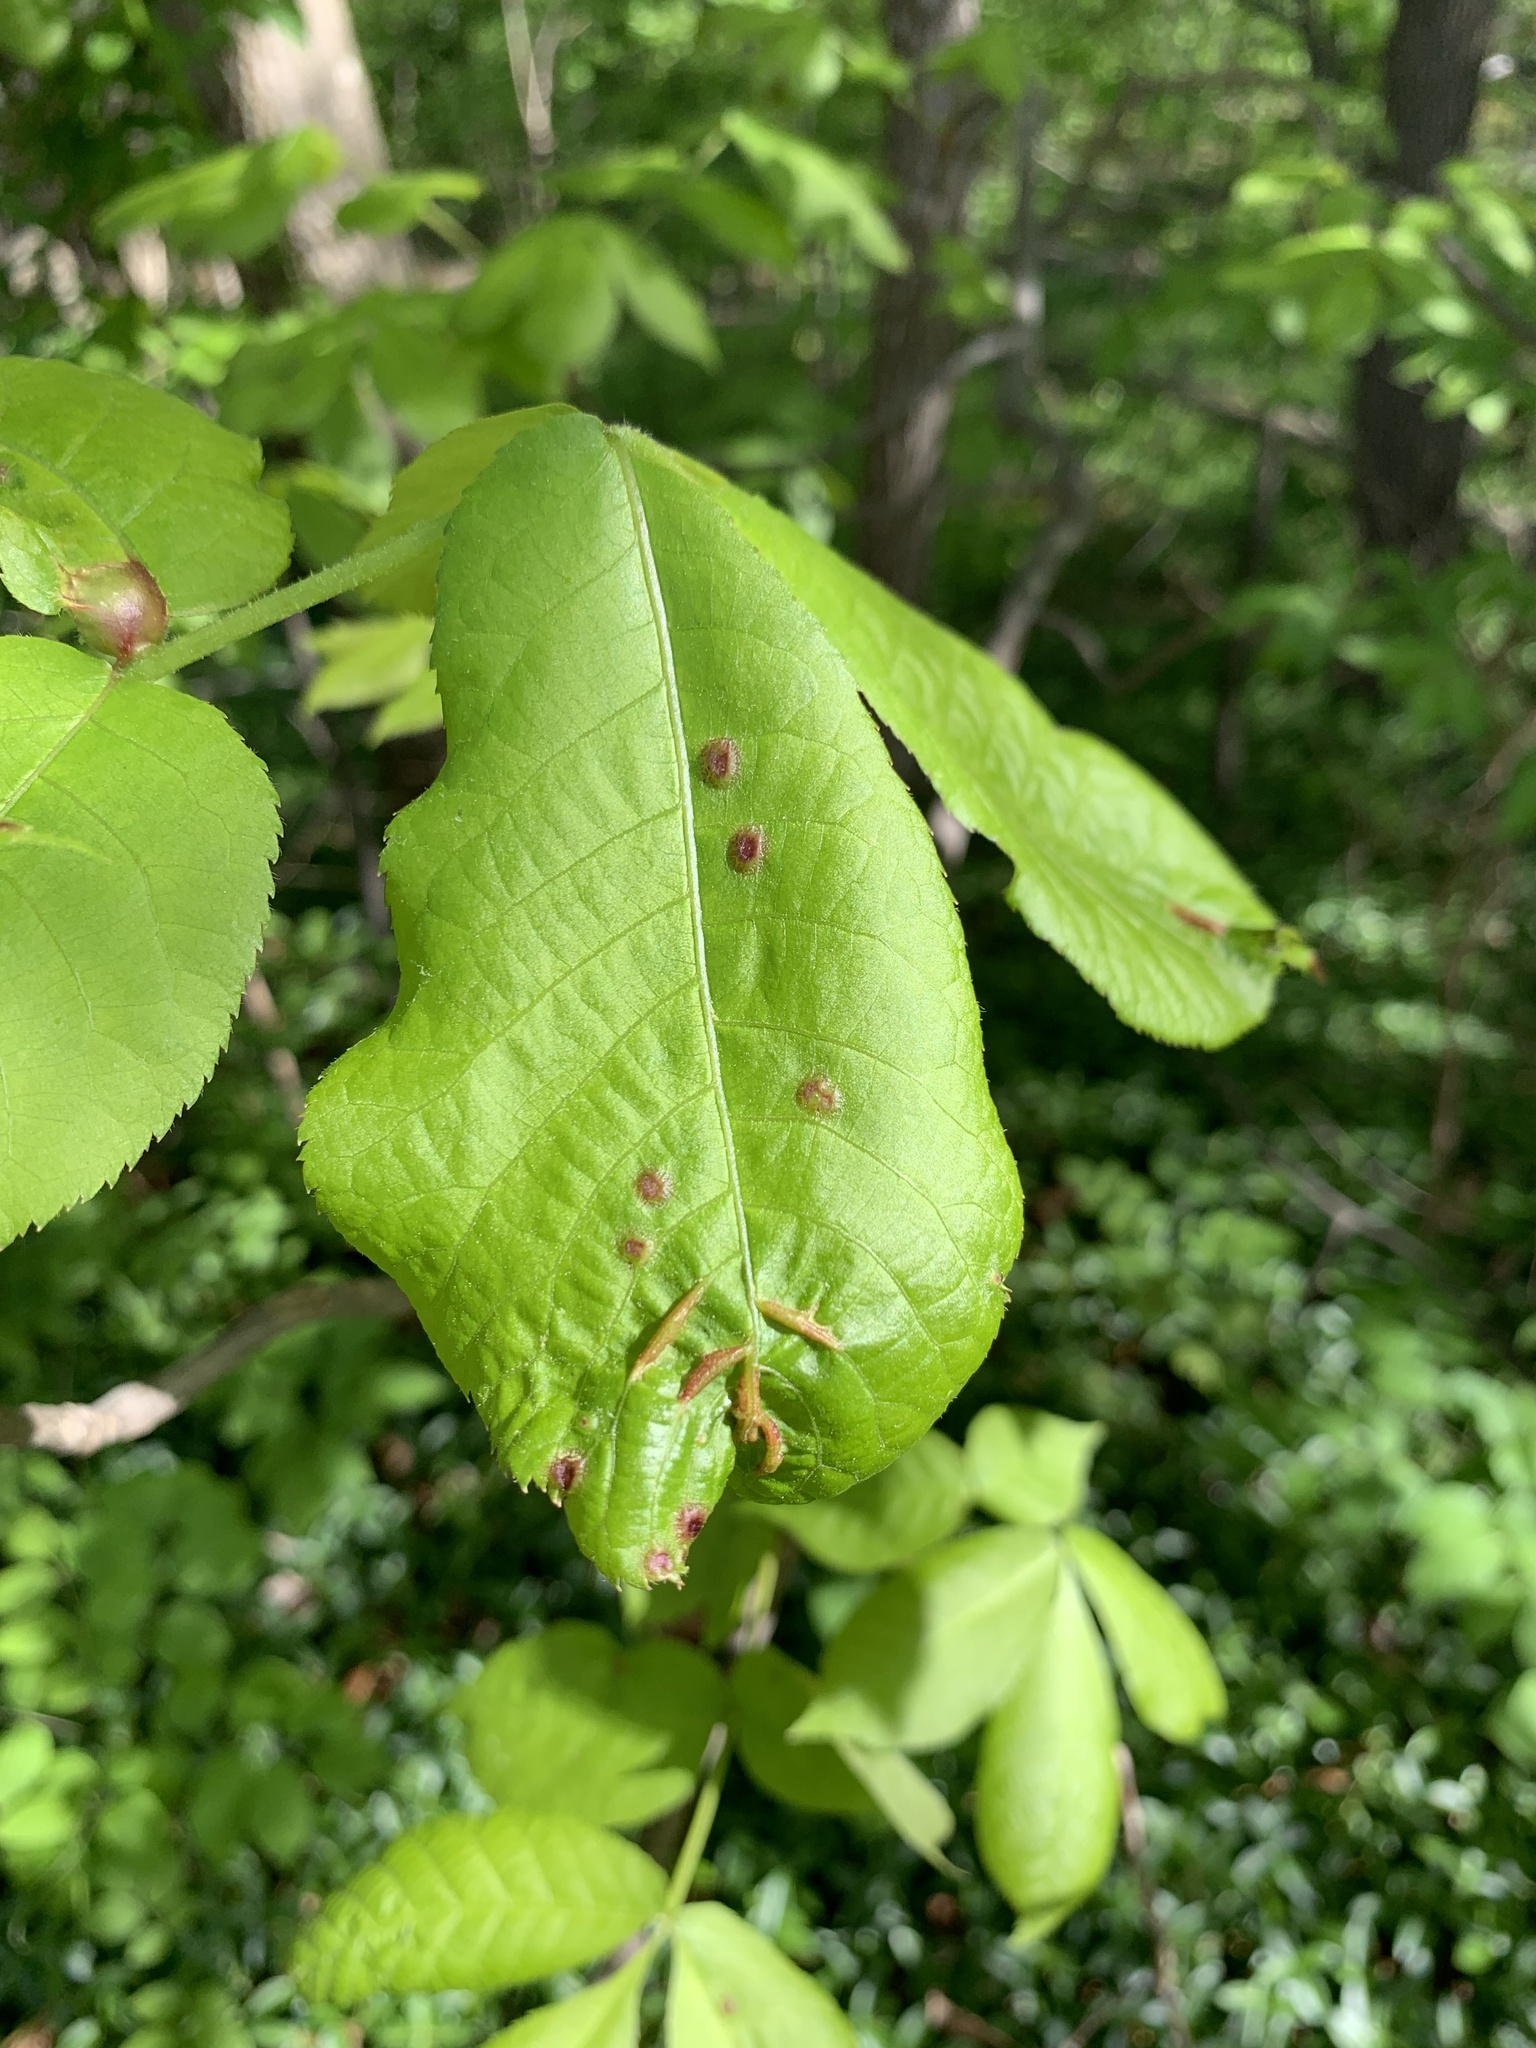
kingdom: Animalia
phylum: Arthropoda
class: Insecta
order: Hemiptera
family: Phylloxeridae
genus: Phylloxera
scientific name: Phylloxera caryaevenae
